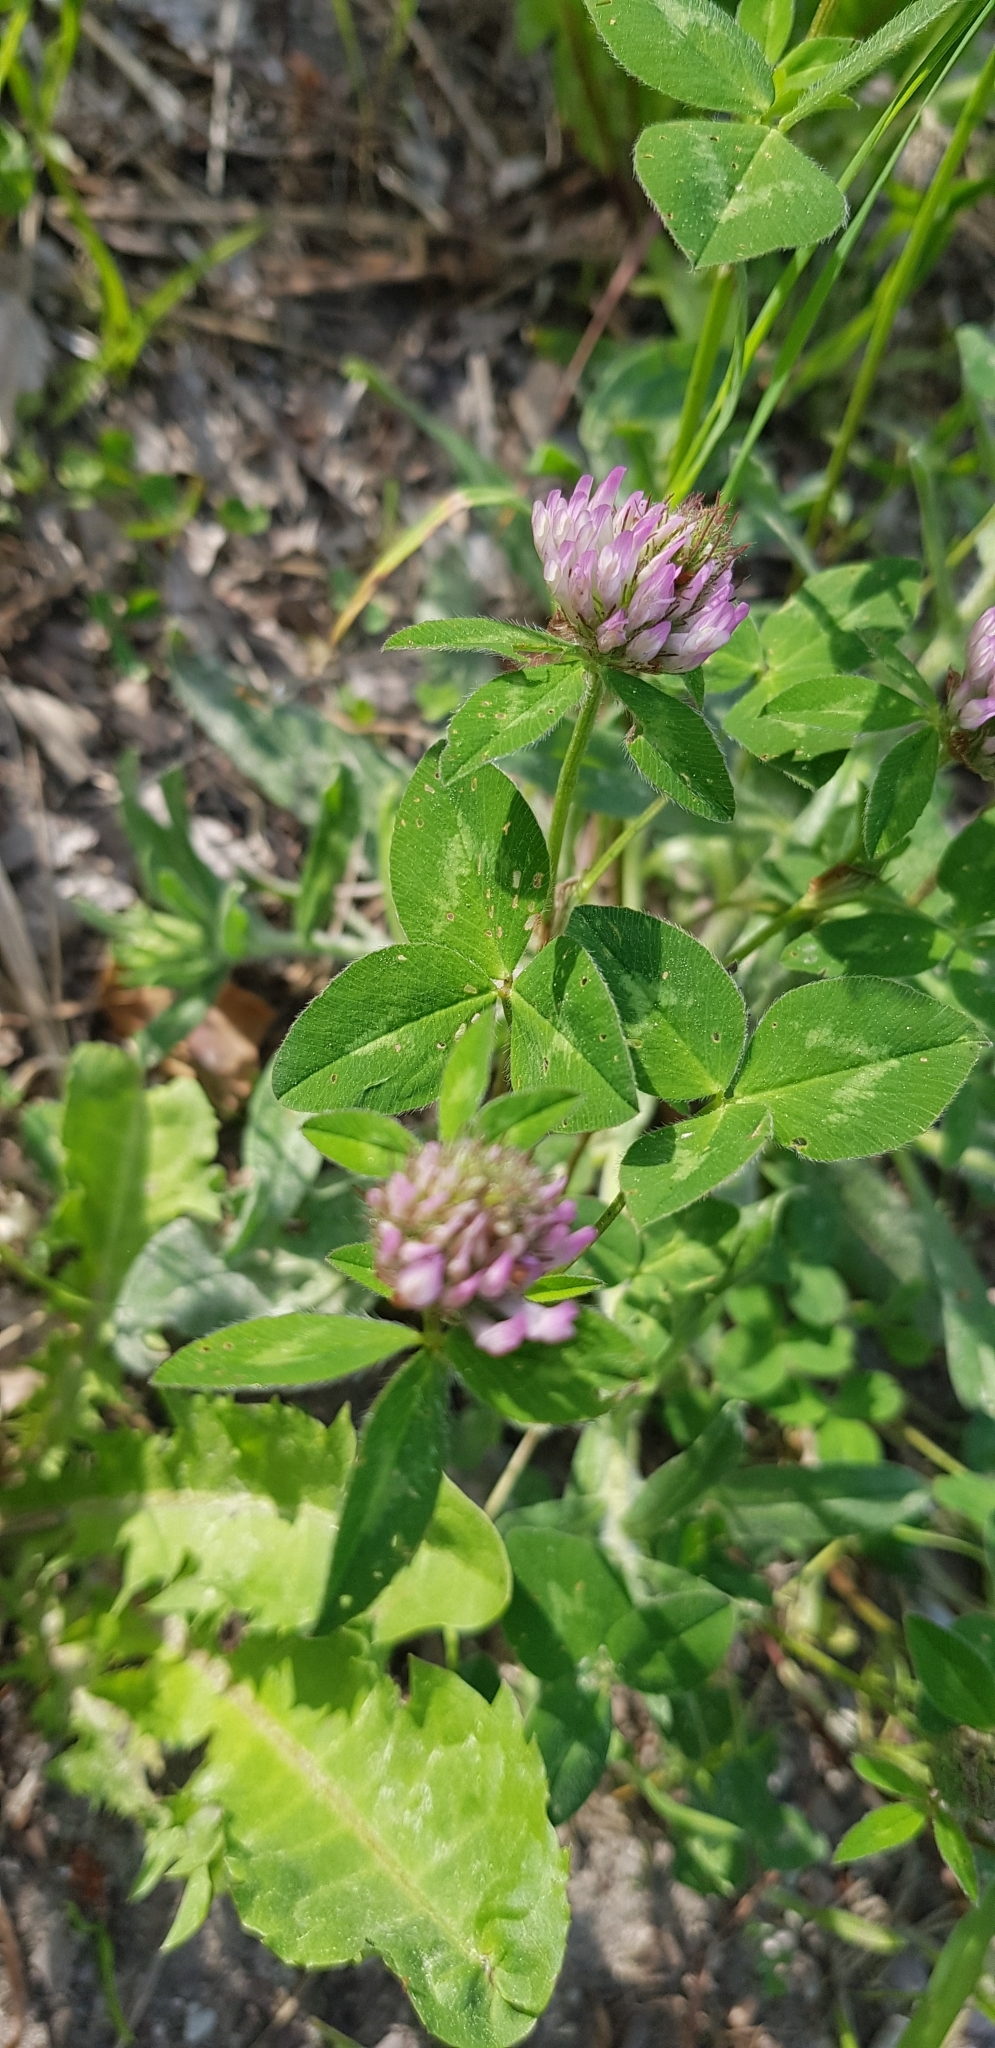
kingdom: Plantae
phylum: Tracheophyta
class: Magnoliopsida
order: Fabales
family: Fabaceae
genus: Trifolium
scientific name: Trifolium pratense
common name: Red clover
